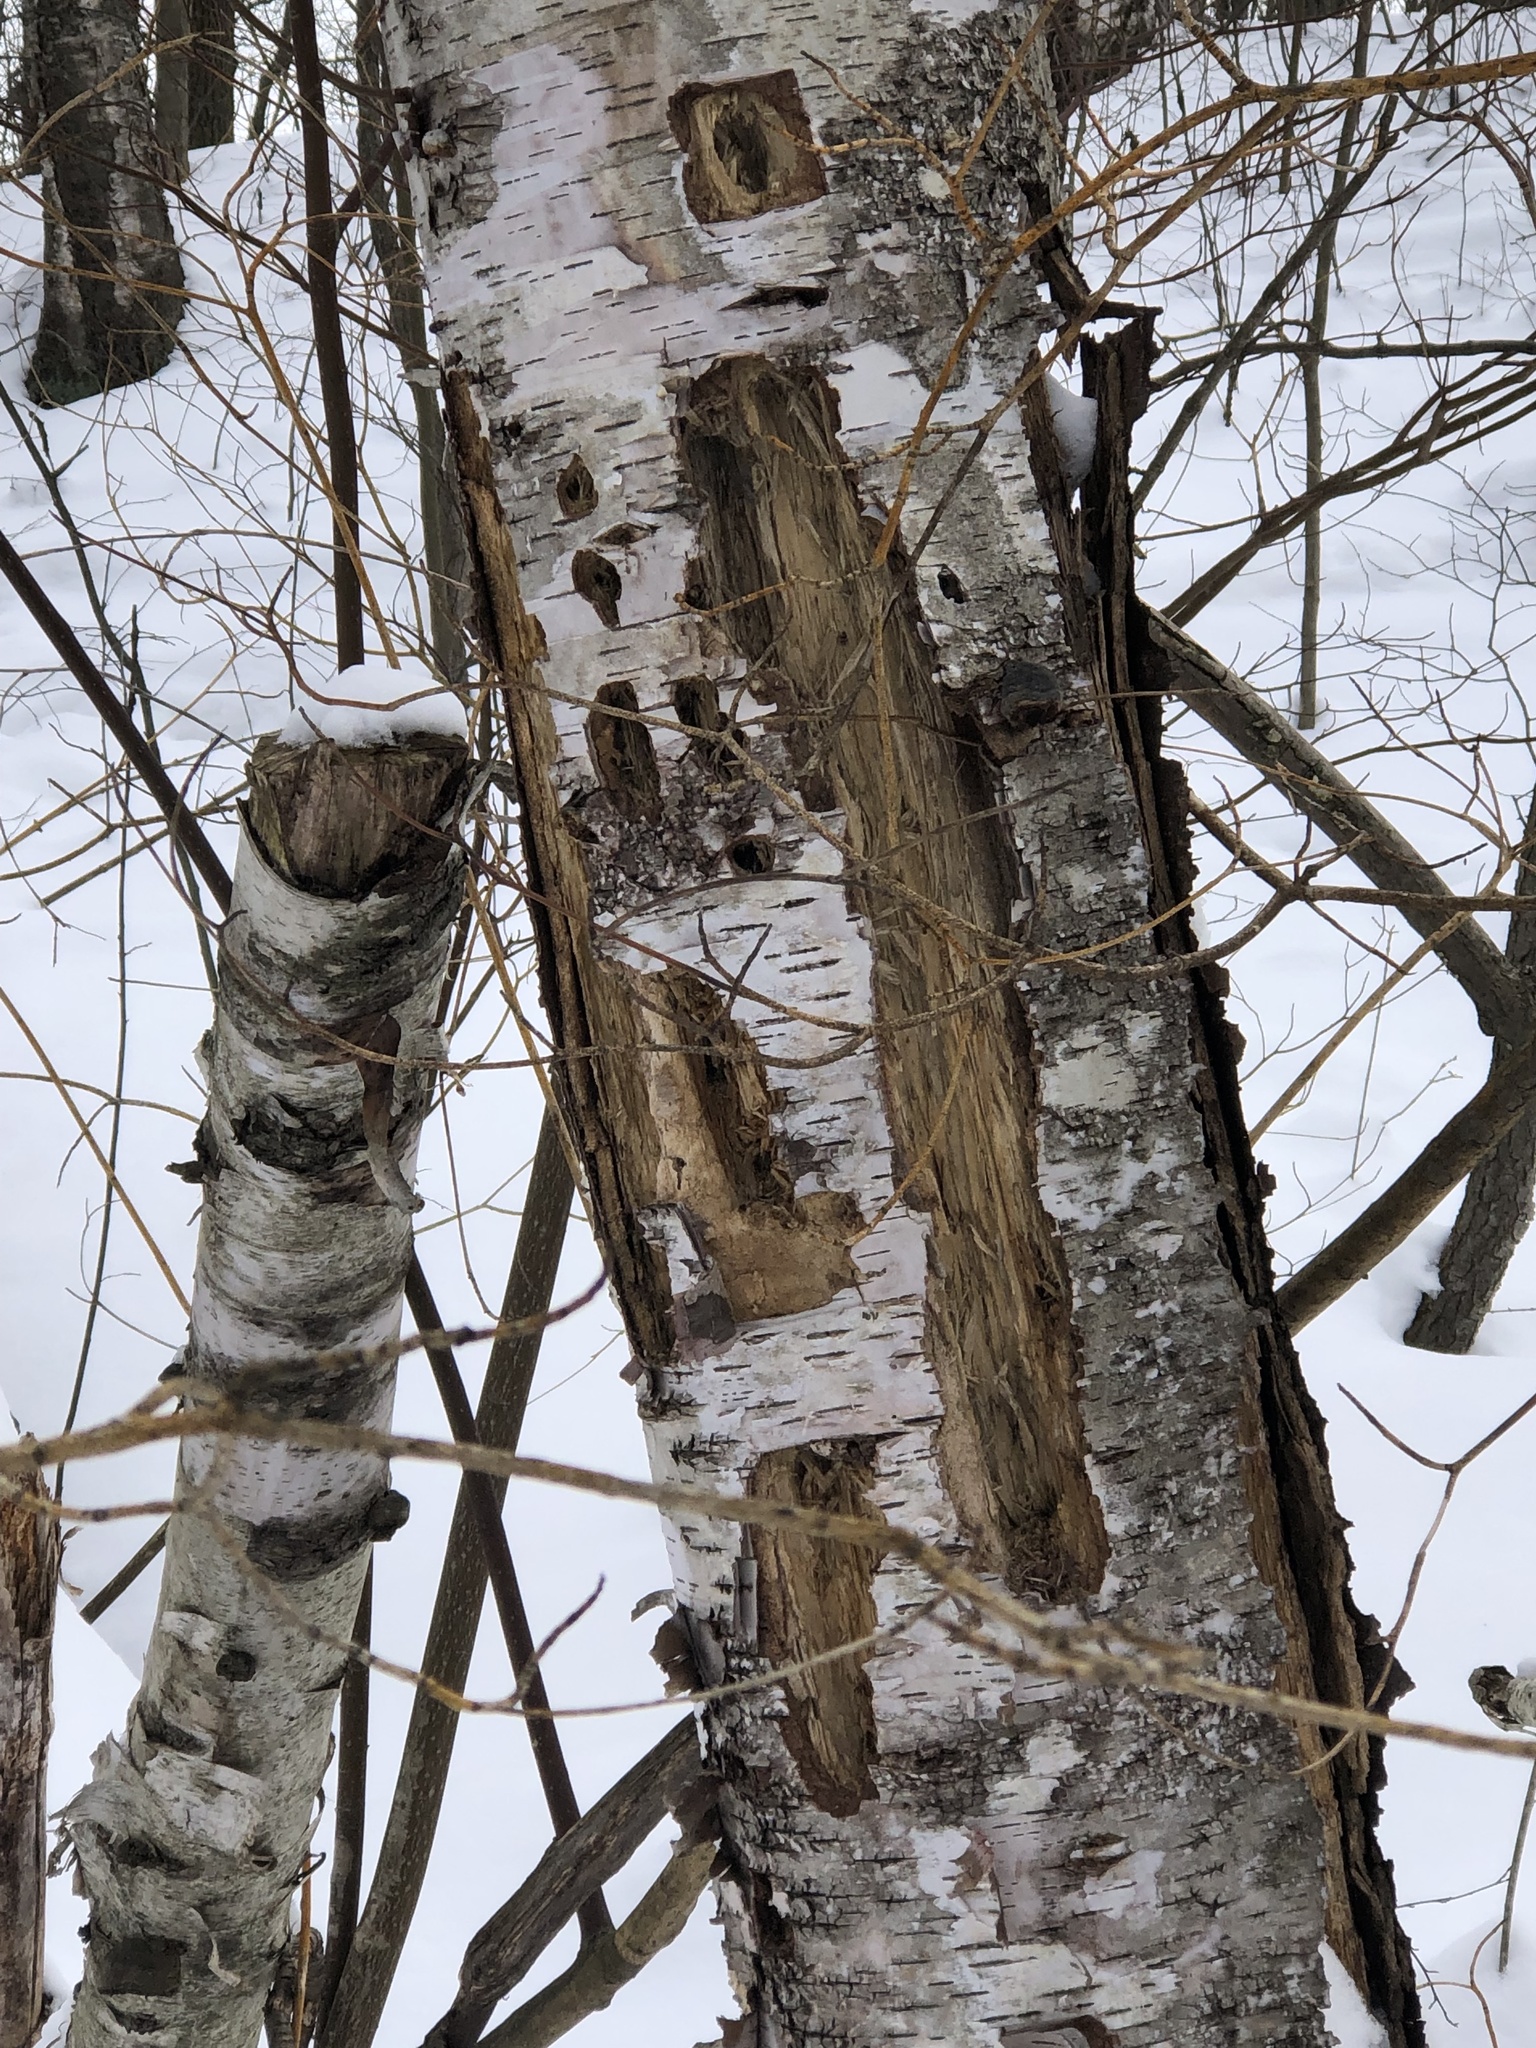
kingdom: Animalia
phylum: Chordata
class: Aves
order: Piciformes
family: Picidae
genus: Dryocopus
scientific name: Dryocopus pileatus
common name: Pileated woodpecker
